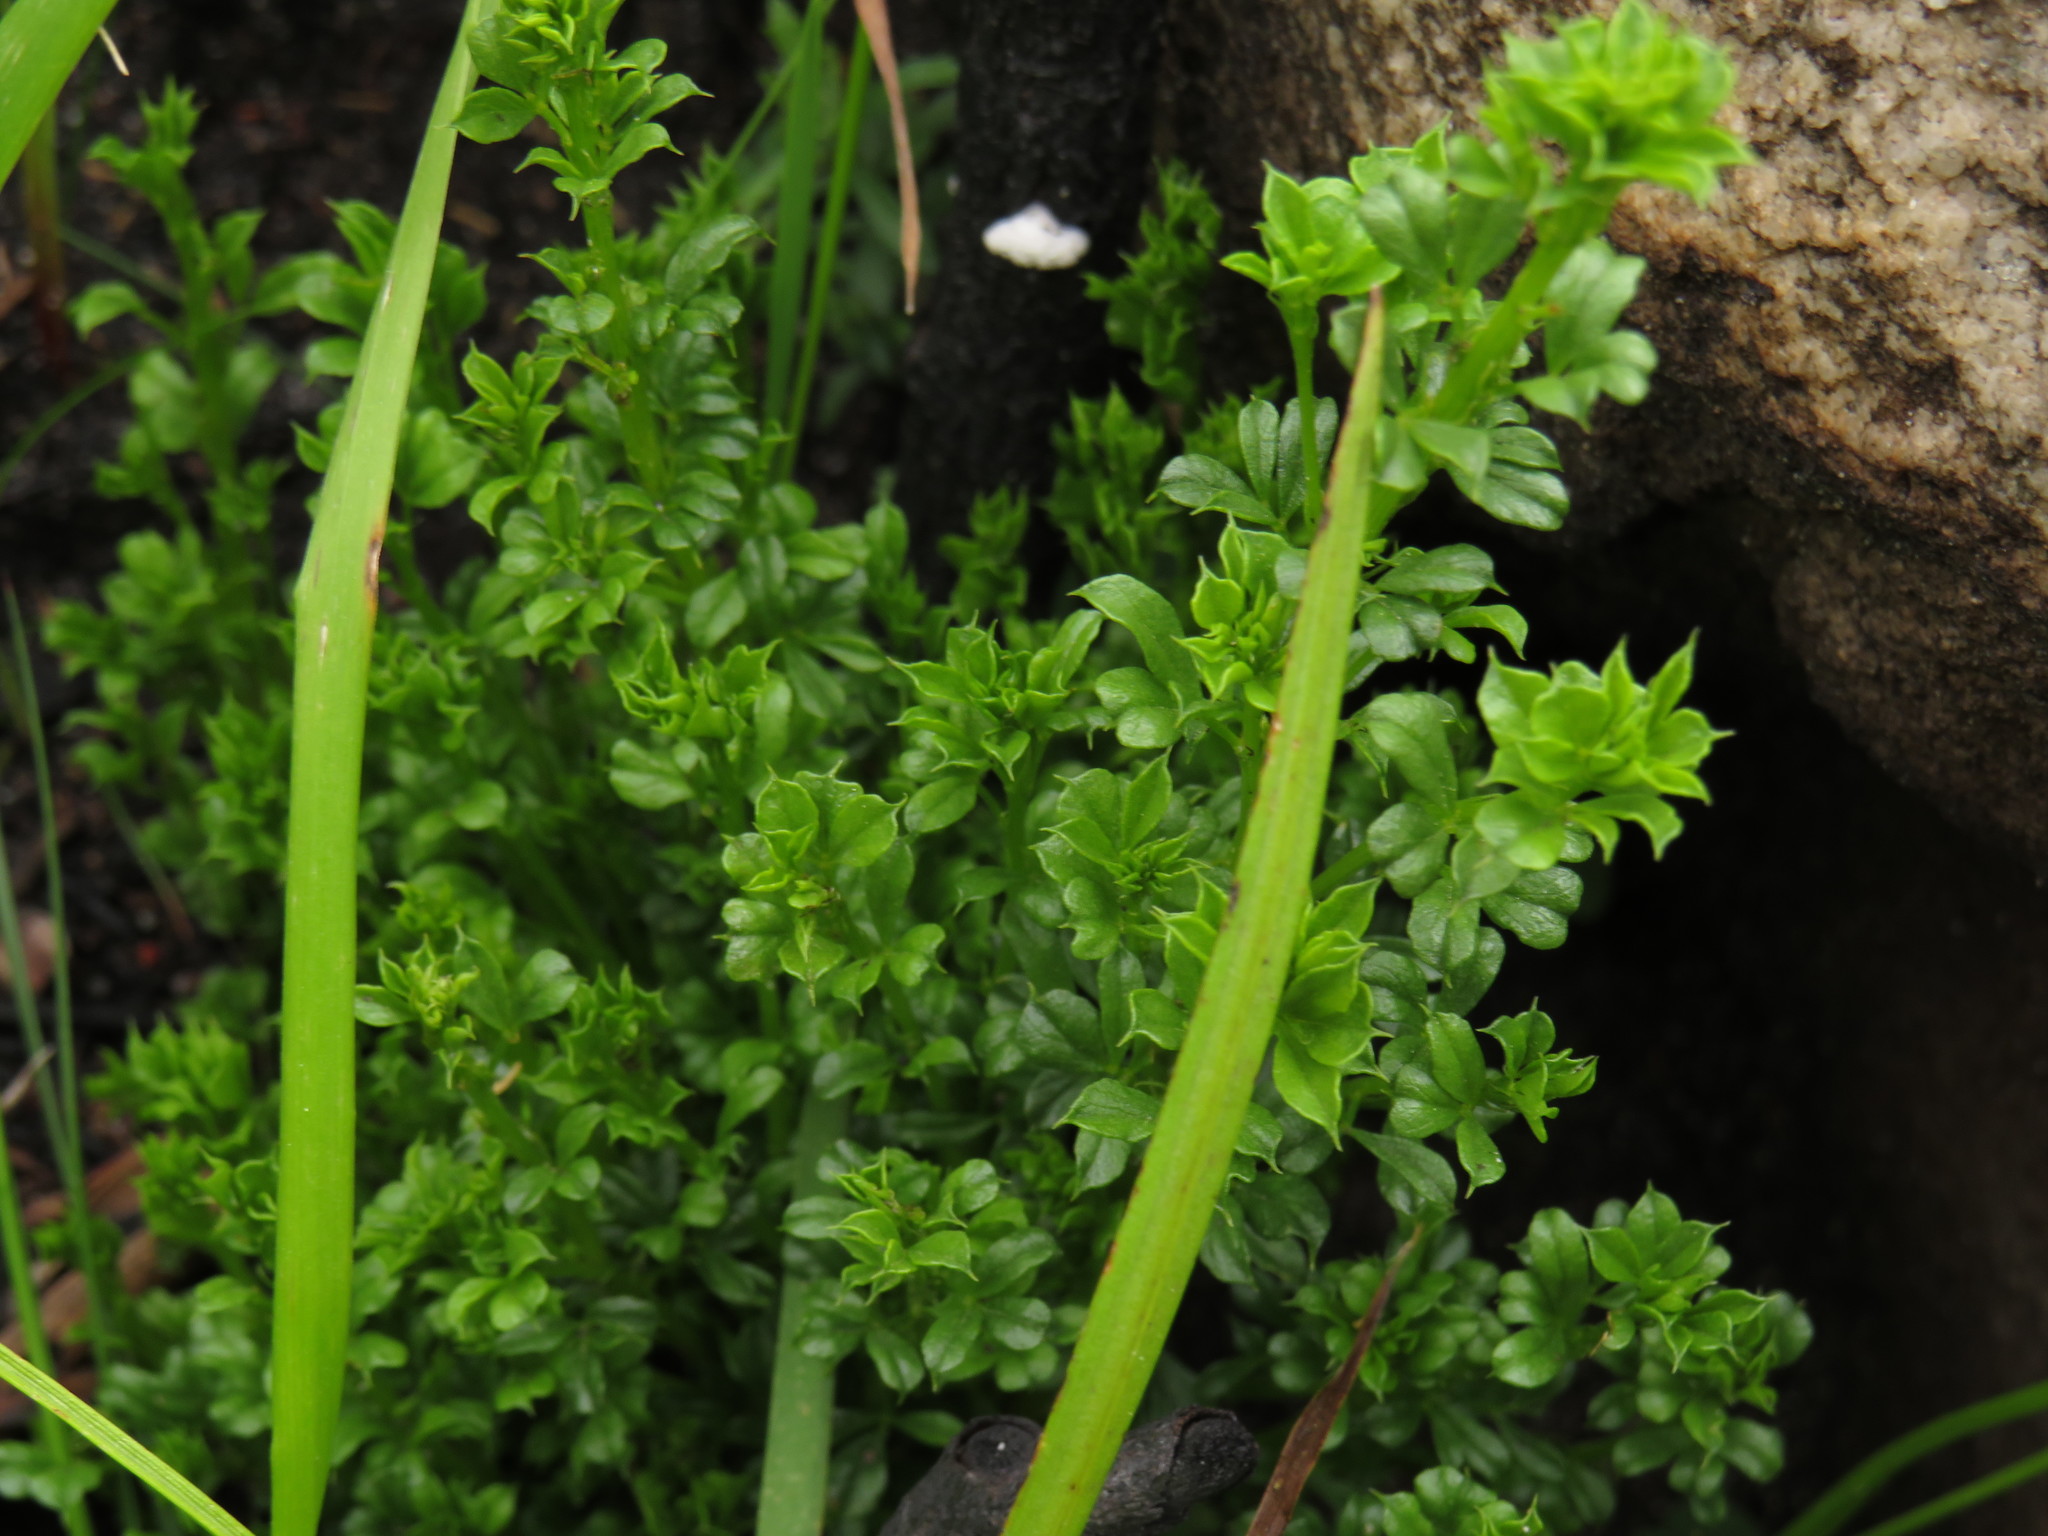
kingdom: Plantae
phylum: Tracheophyta
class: Magnoliopsida
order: Fabales
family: Fabaceae
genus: Psoralea
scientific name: Psoralea aculeata
